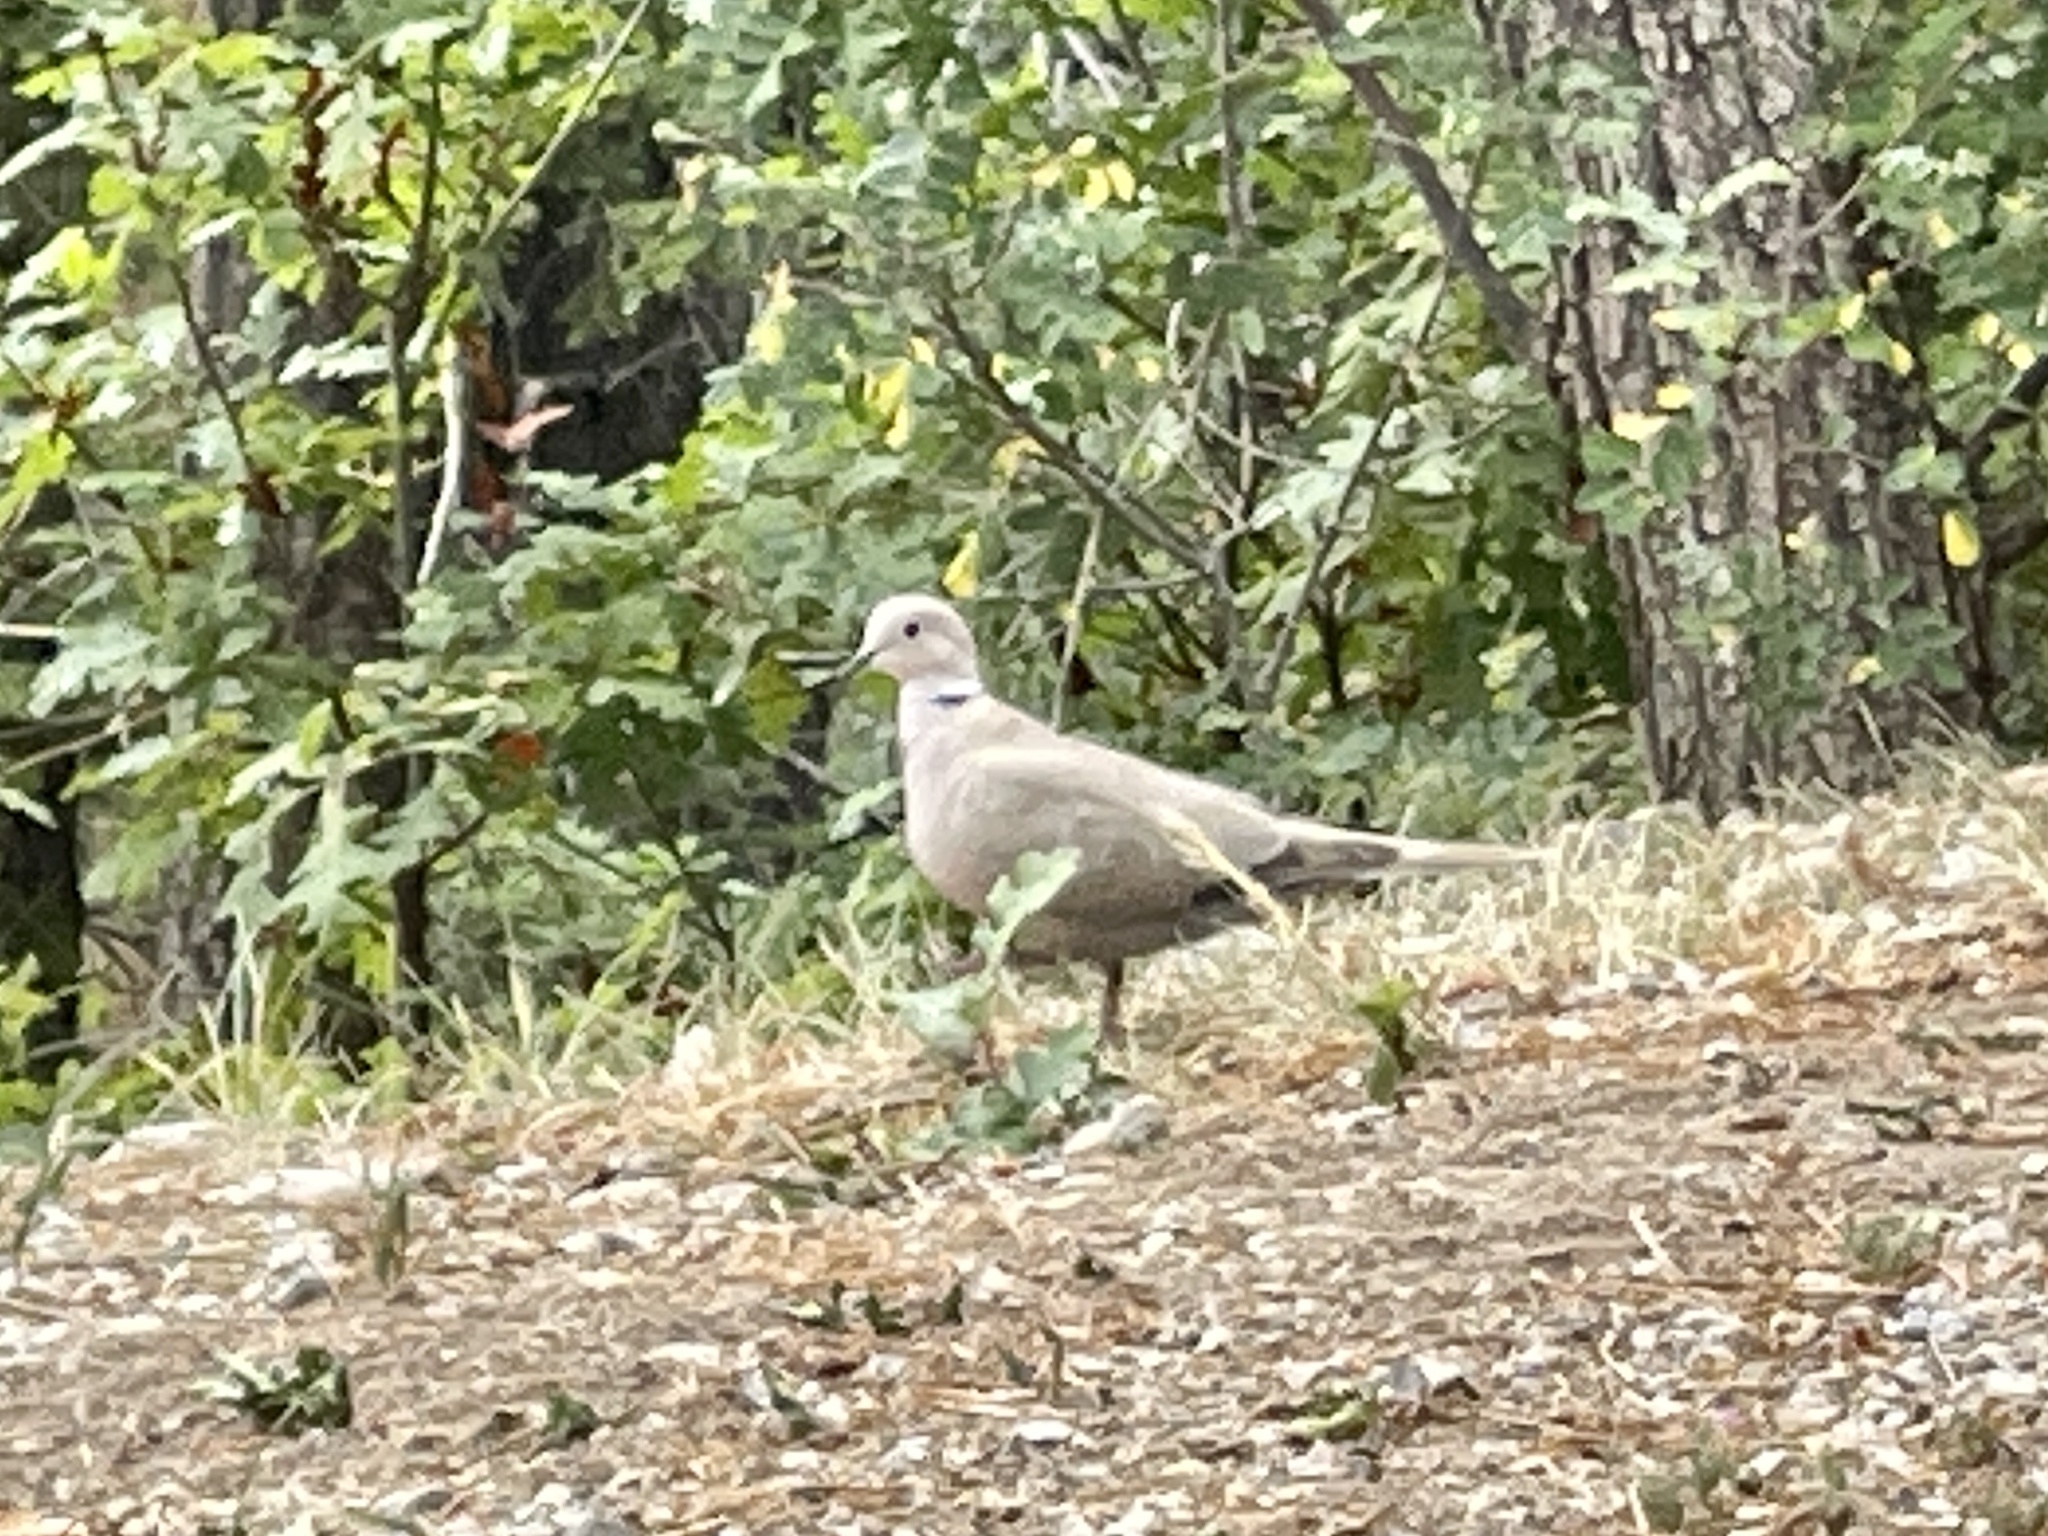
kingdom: Animalia
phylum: Chordata
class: Aves
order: Columbiformes
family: Columbidae
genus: Streptopelia
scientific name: Streptopelia decaocto
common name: Eurasian collared dove
